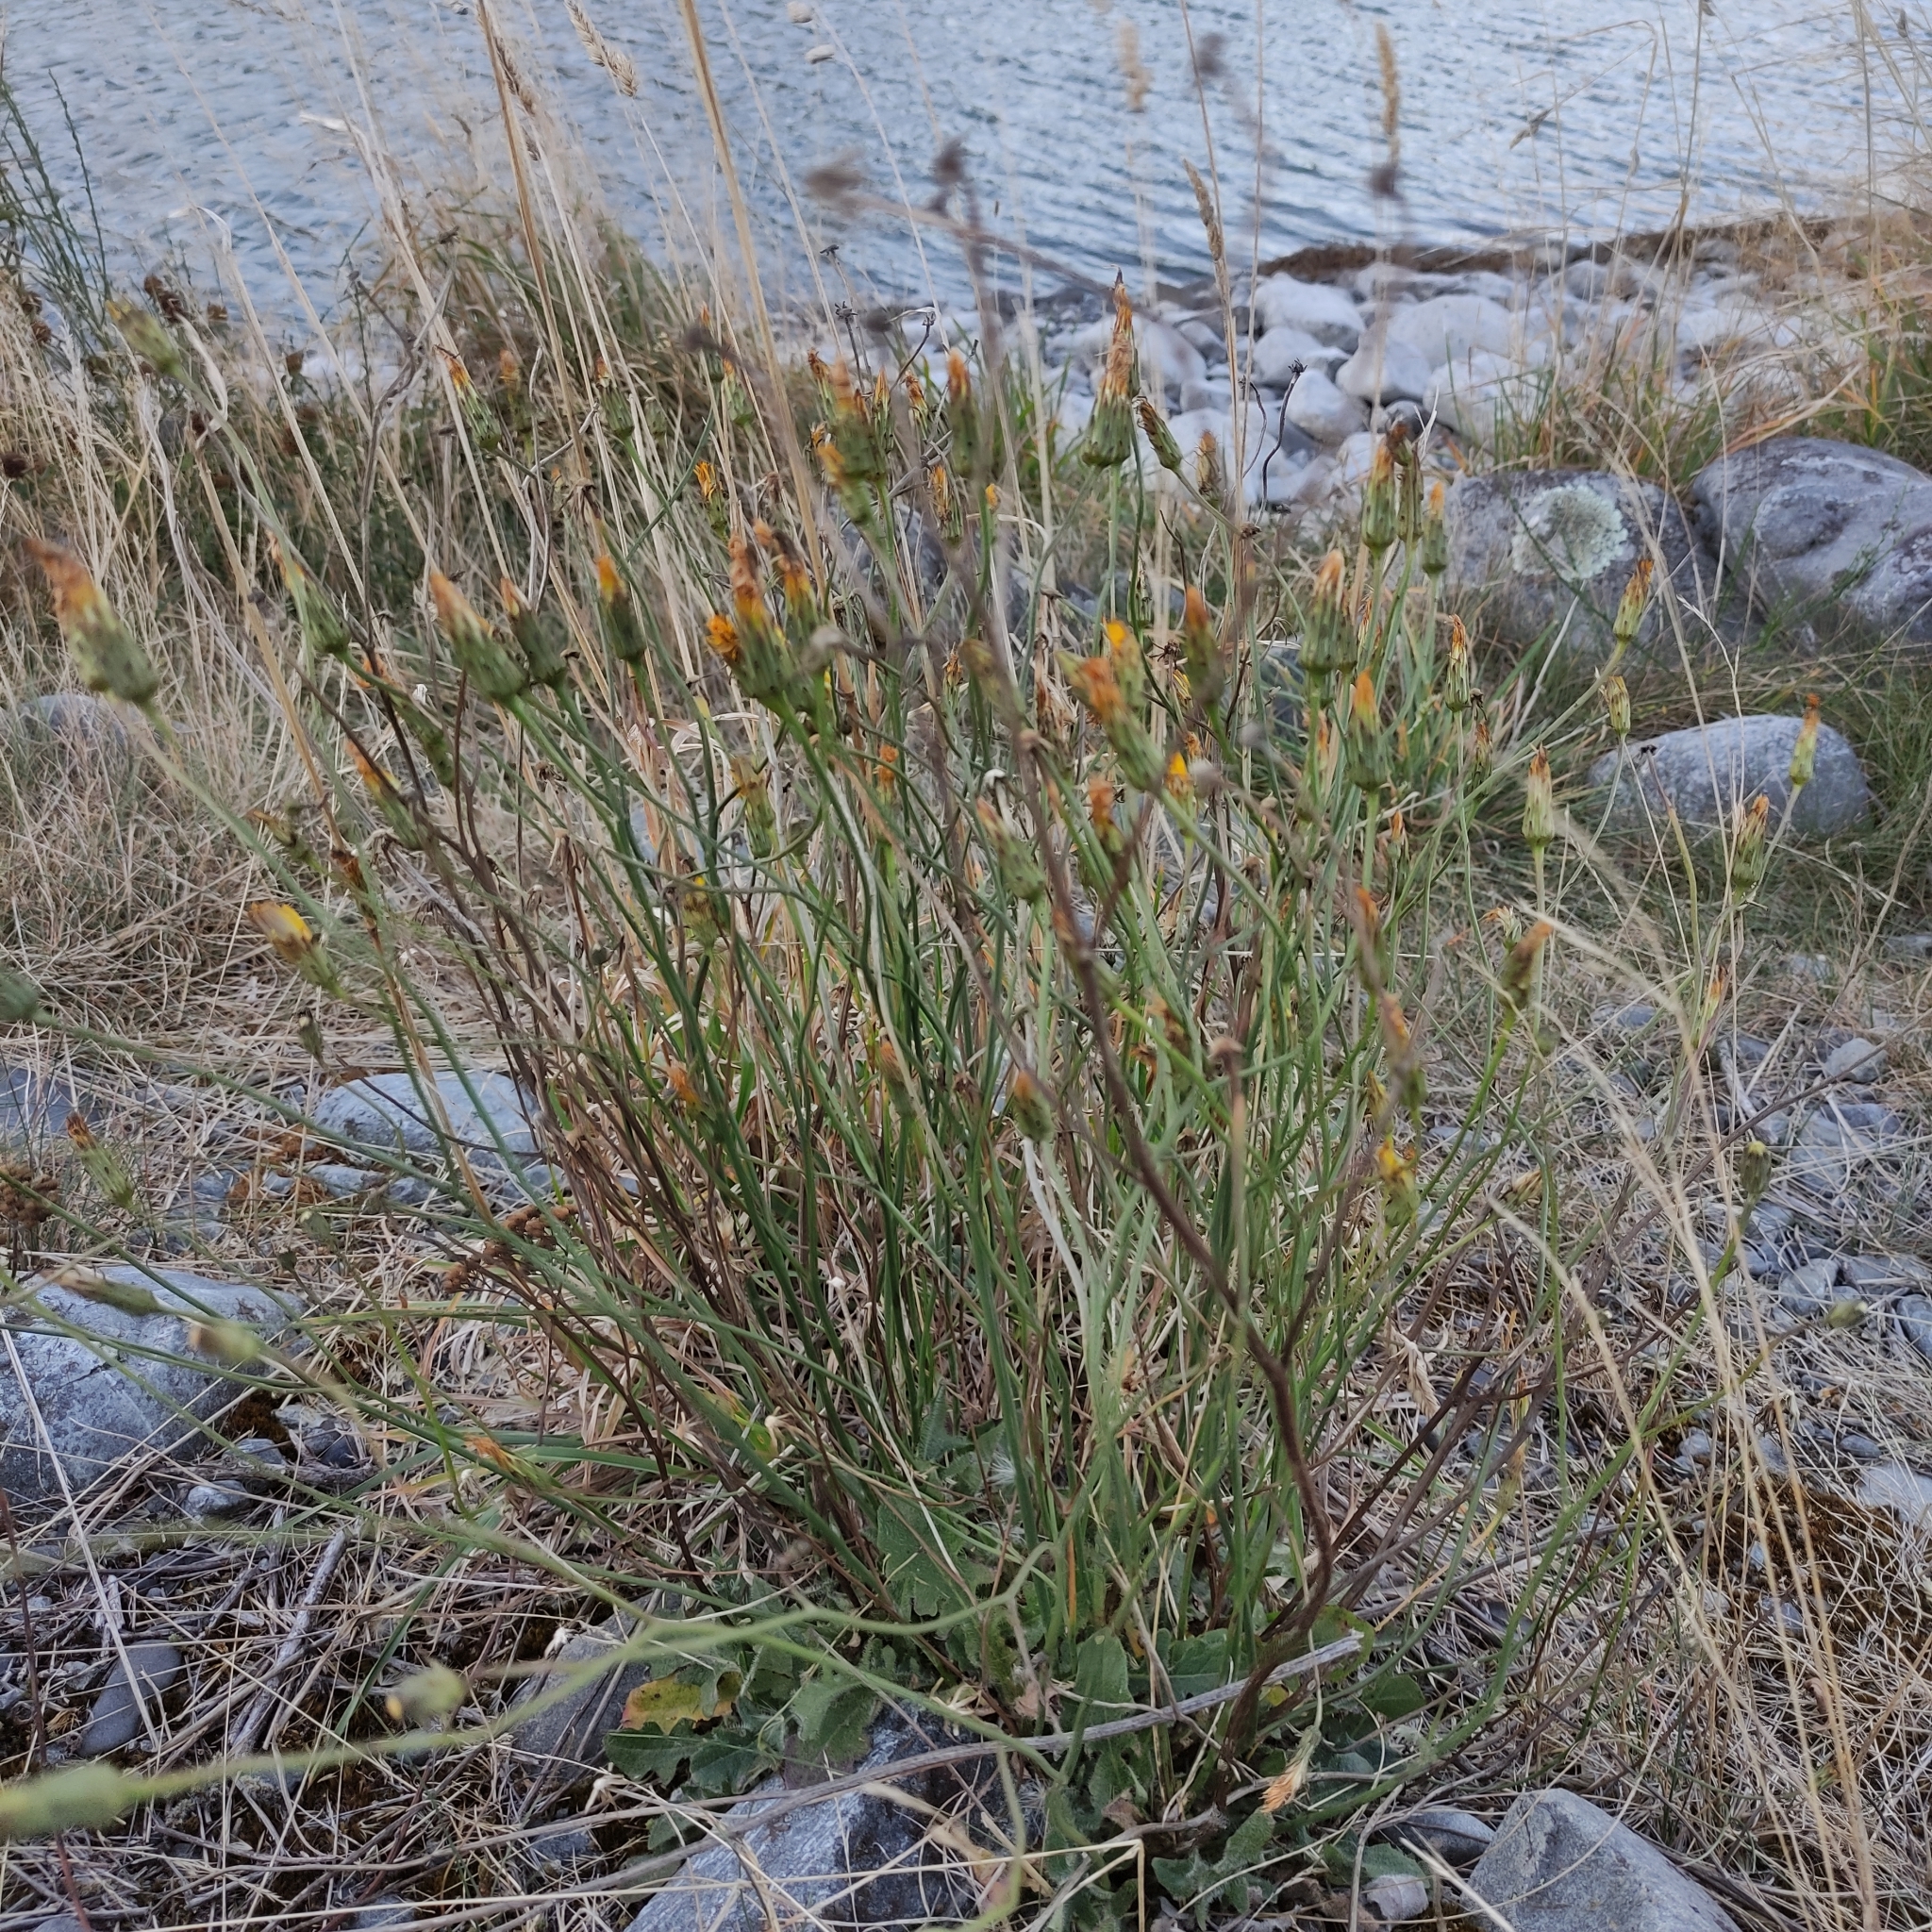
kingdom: Plantae
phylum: Tracheophyta
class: Magnoliopsida
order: Asterales
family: Asteraceae
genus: Hypochaeris
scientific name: Hypochaeris radicata
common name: Flatweed
